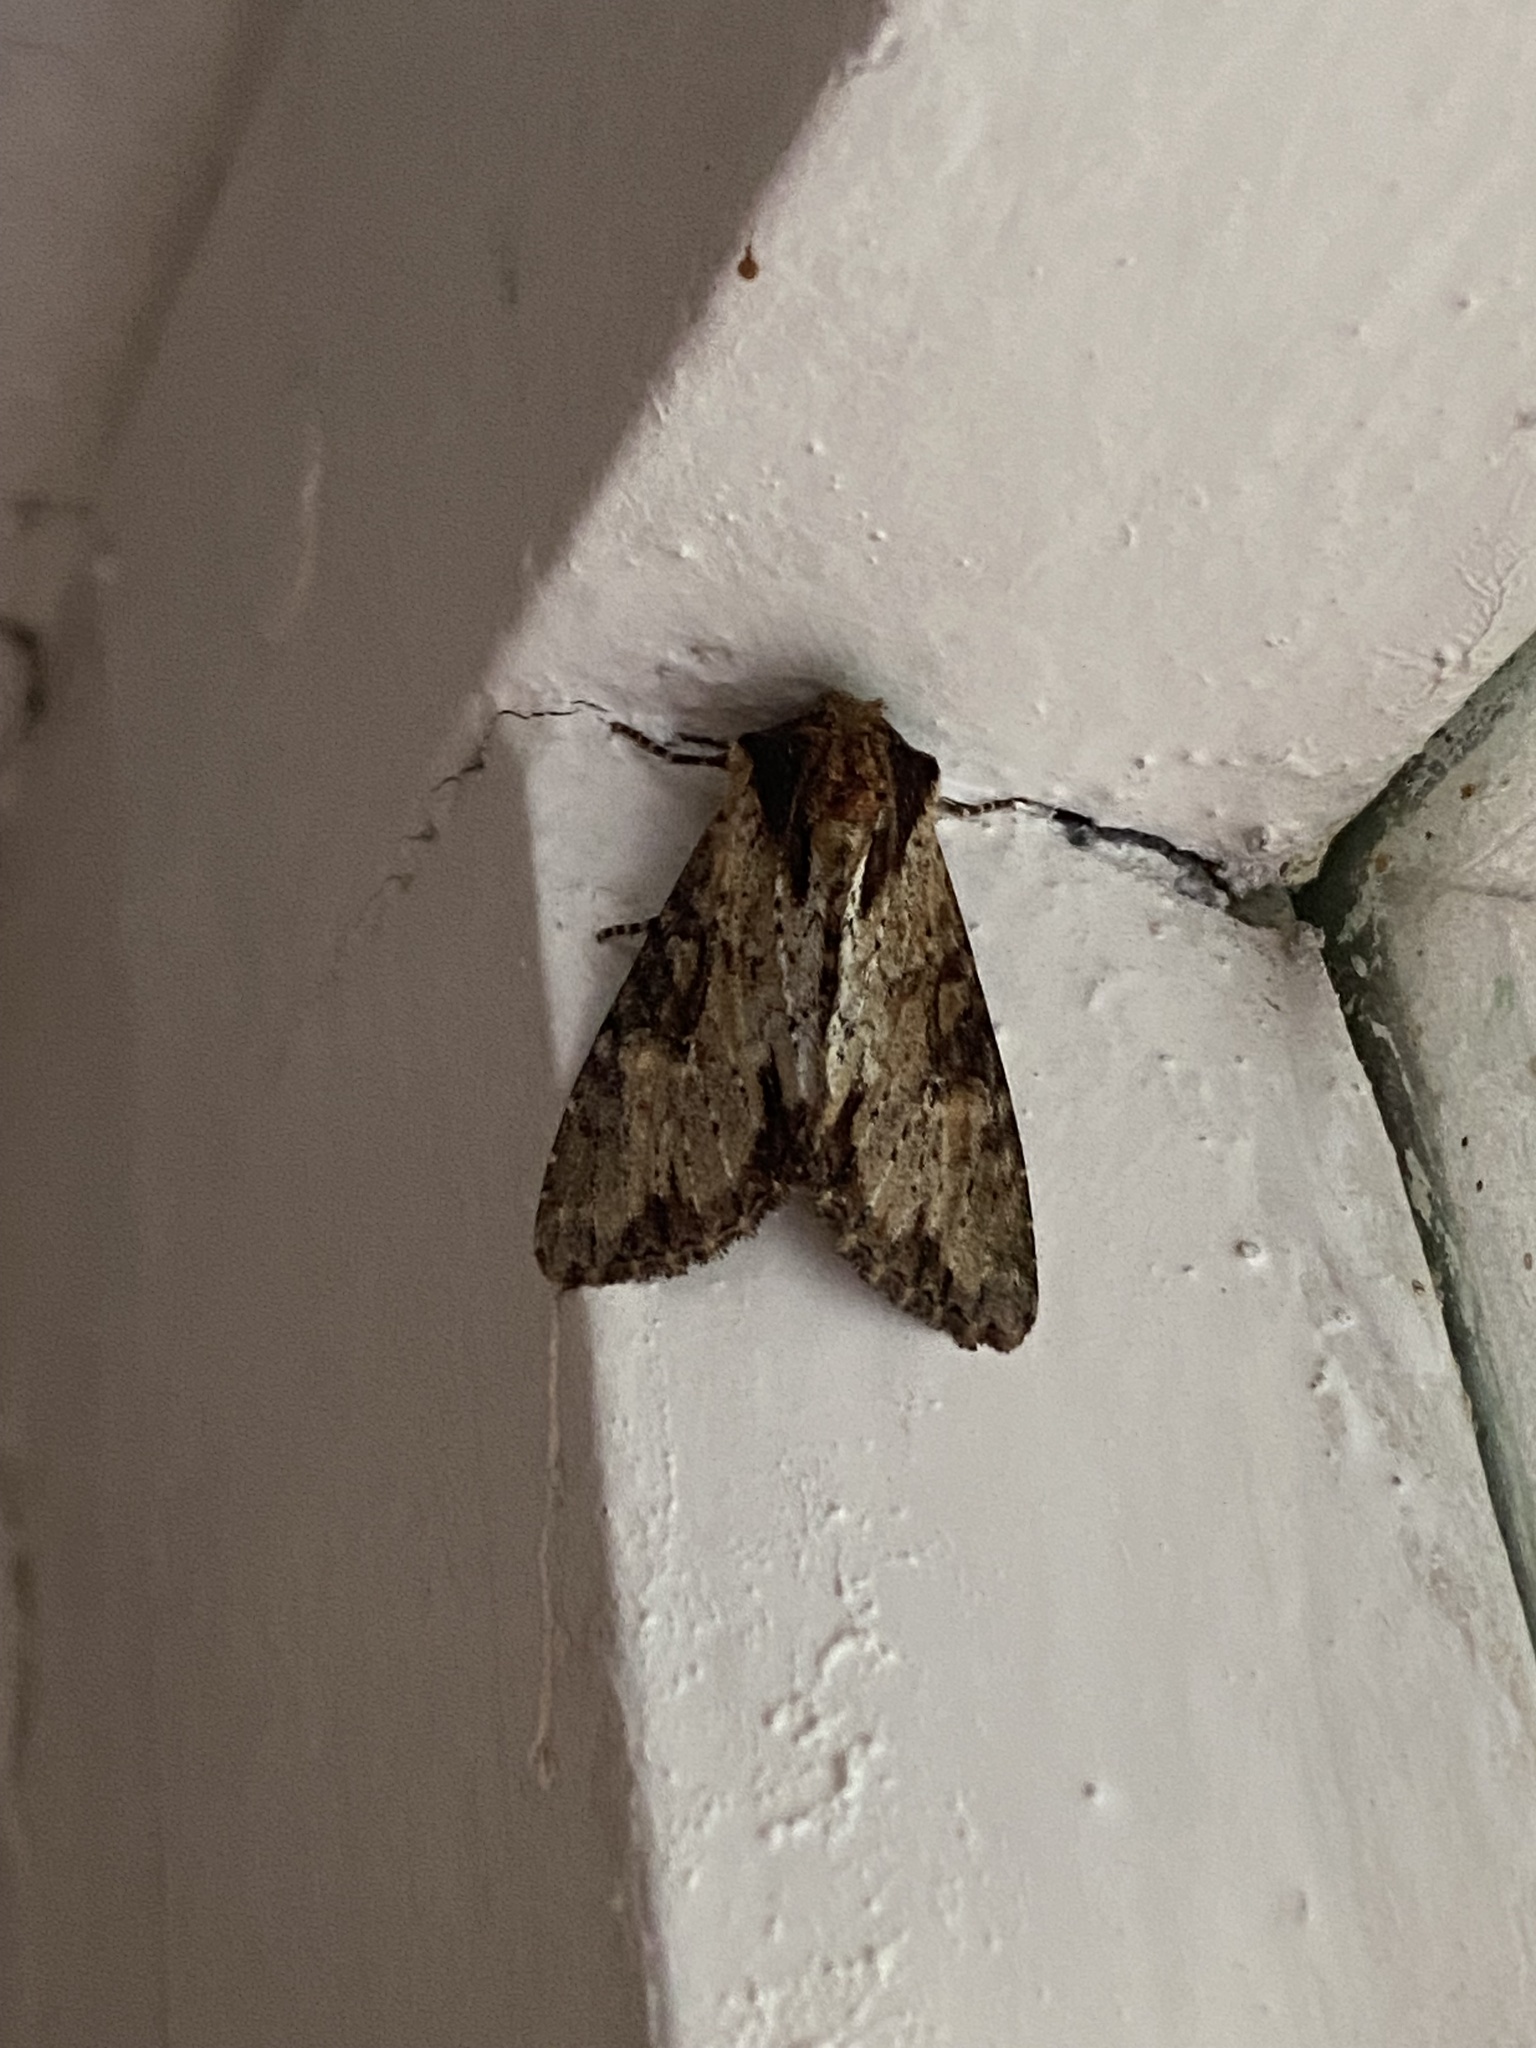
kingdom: Animalia
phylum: Arthropoda
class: Insecta
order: Lepidoptera
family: Noctuidae
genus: Apamea
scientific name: Apamea crenata
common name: Clouded-bordered brindle
